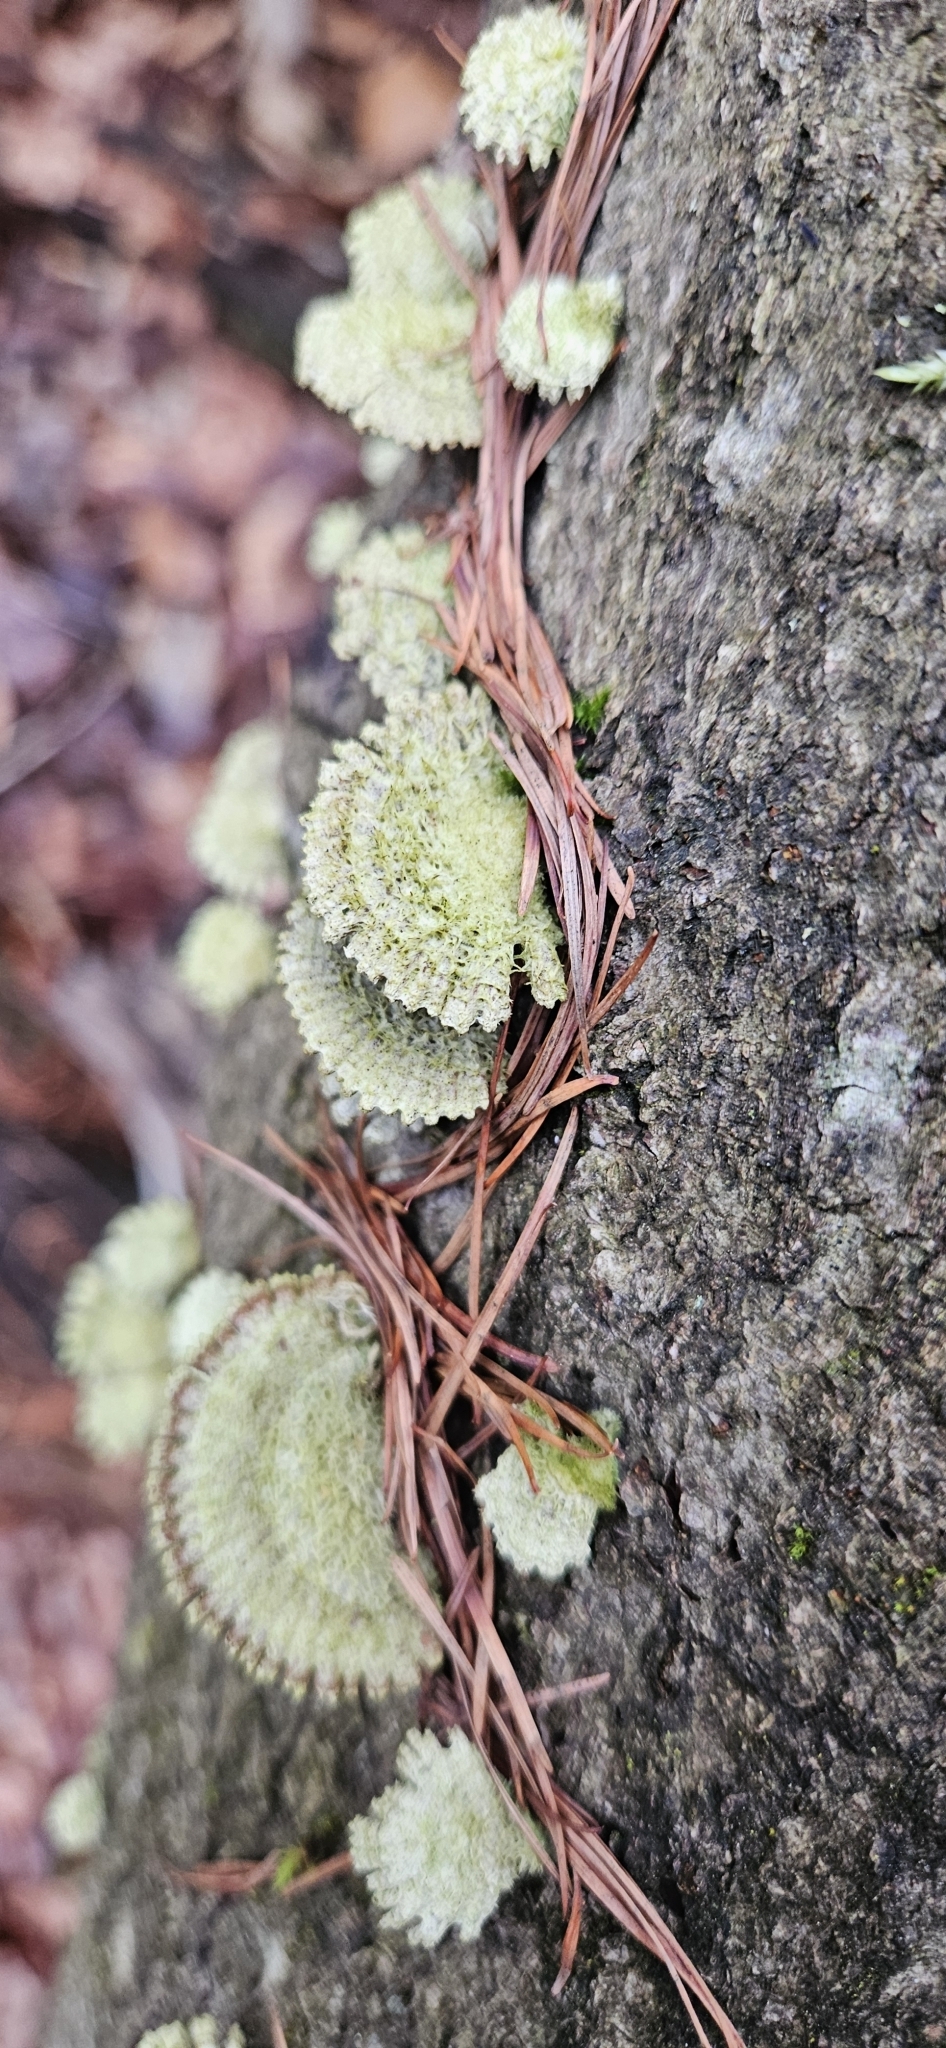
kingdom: Fungi
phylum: Basidiomycota
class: Agaricomycetes
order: Agaricales
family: Schizophyllaceae
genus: Schizophyllum
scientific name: Schizophyllum commune
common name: Common porecrust
